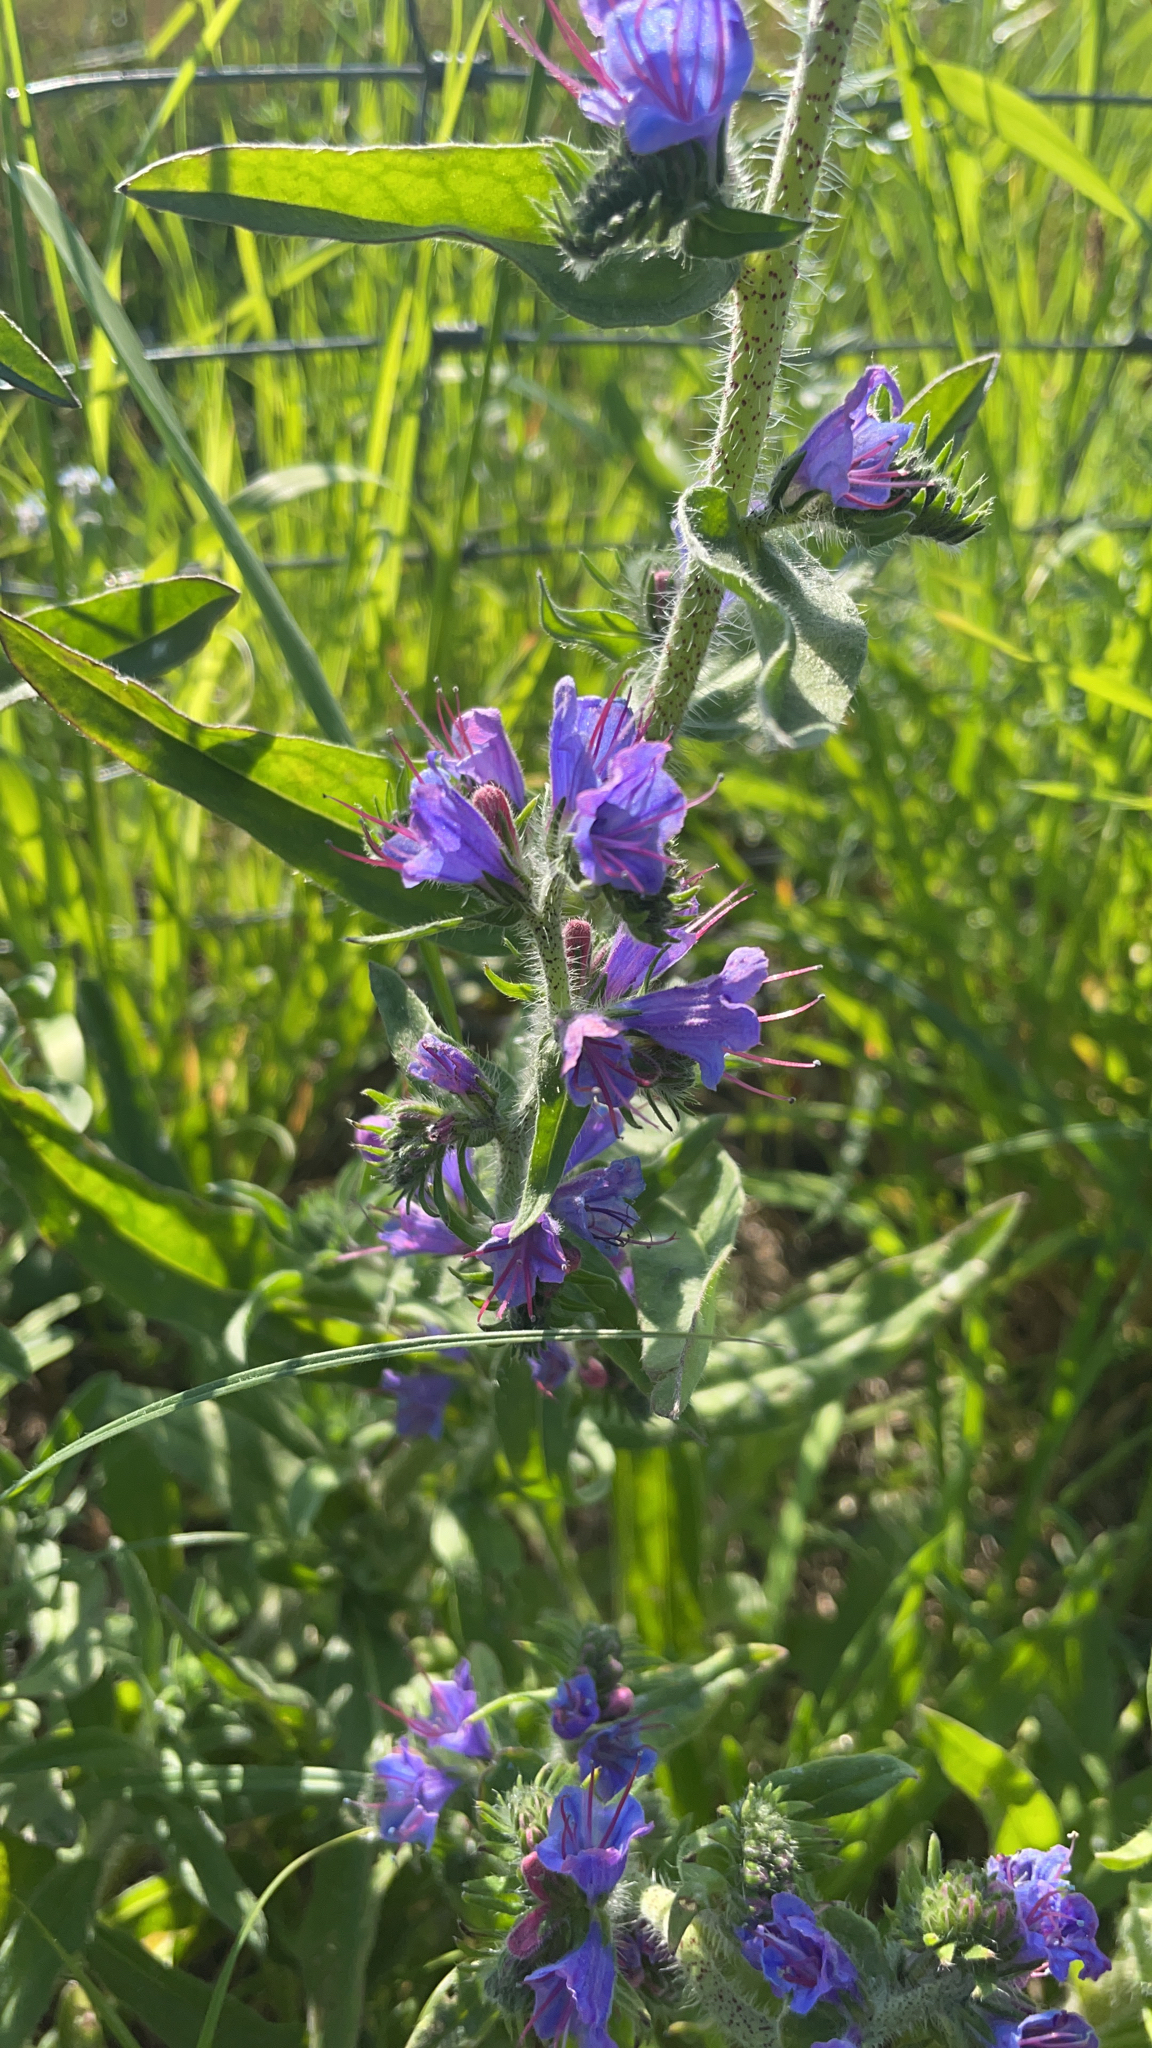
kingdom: Plantae
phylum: Tracheophyta
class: Magnoliopsida
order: Boraginales
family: Boraginaceae
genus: Echium
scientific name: Echium vulgare
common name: Common viper's bugloss
